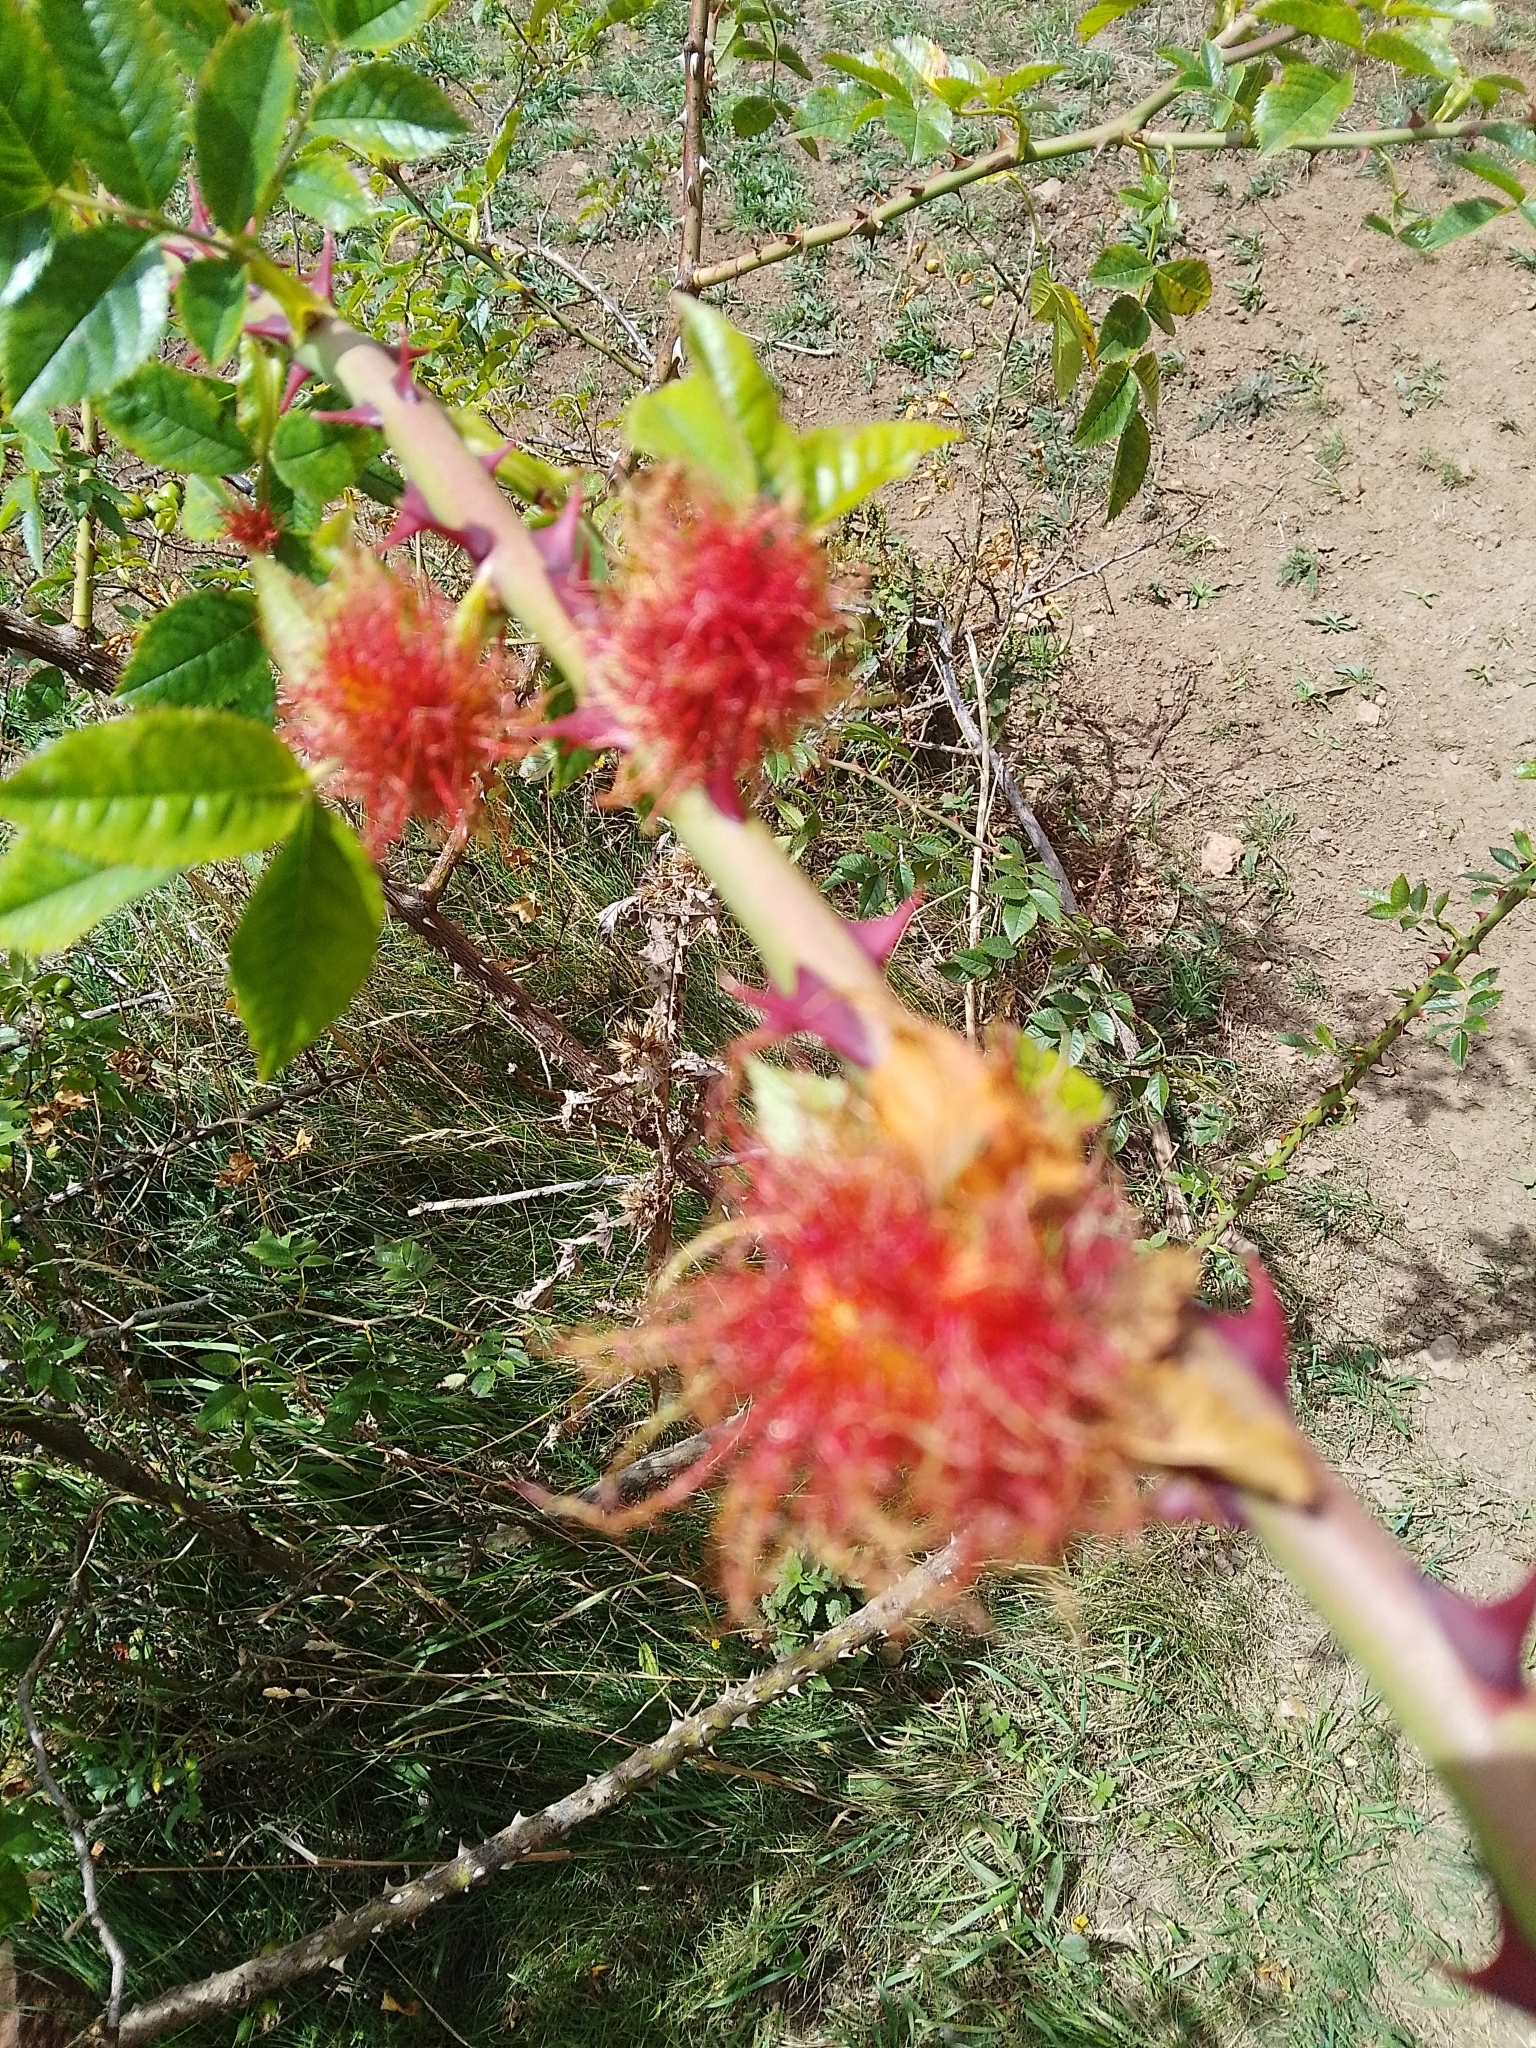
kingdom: Animalia
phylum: Arthropoda
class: Insecta
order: Hymenoptera
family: Cynipidae
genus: Diplolepis
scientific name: Diplolepis rosae
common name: Bedeguar gall
